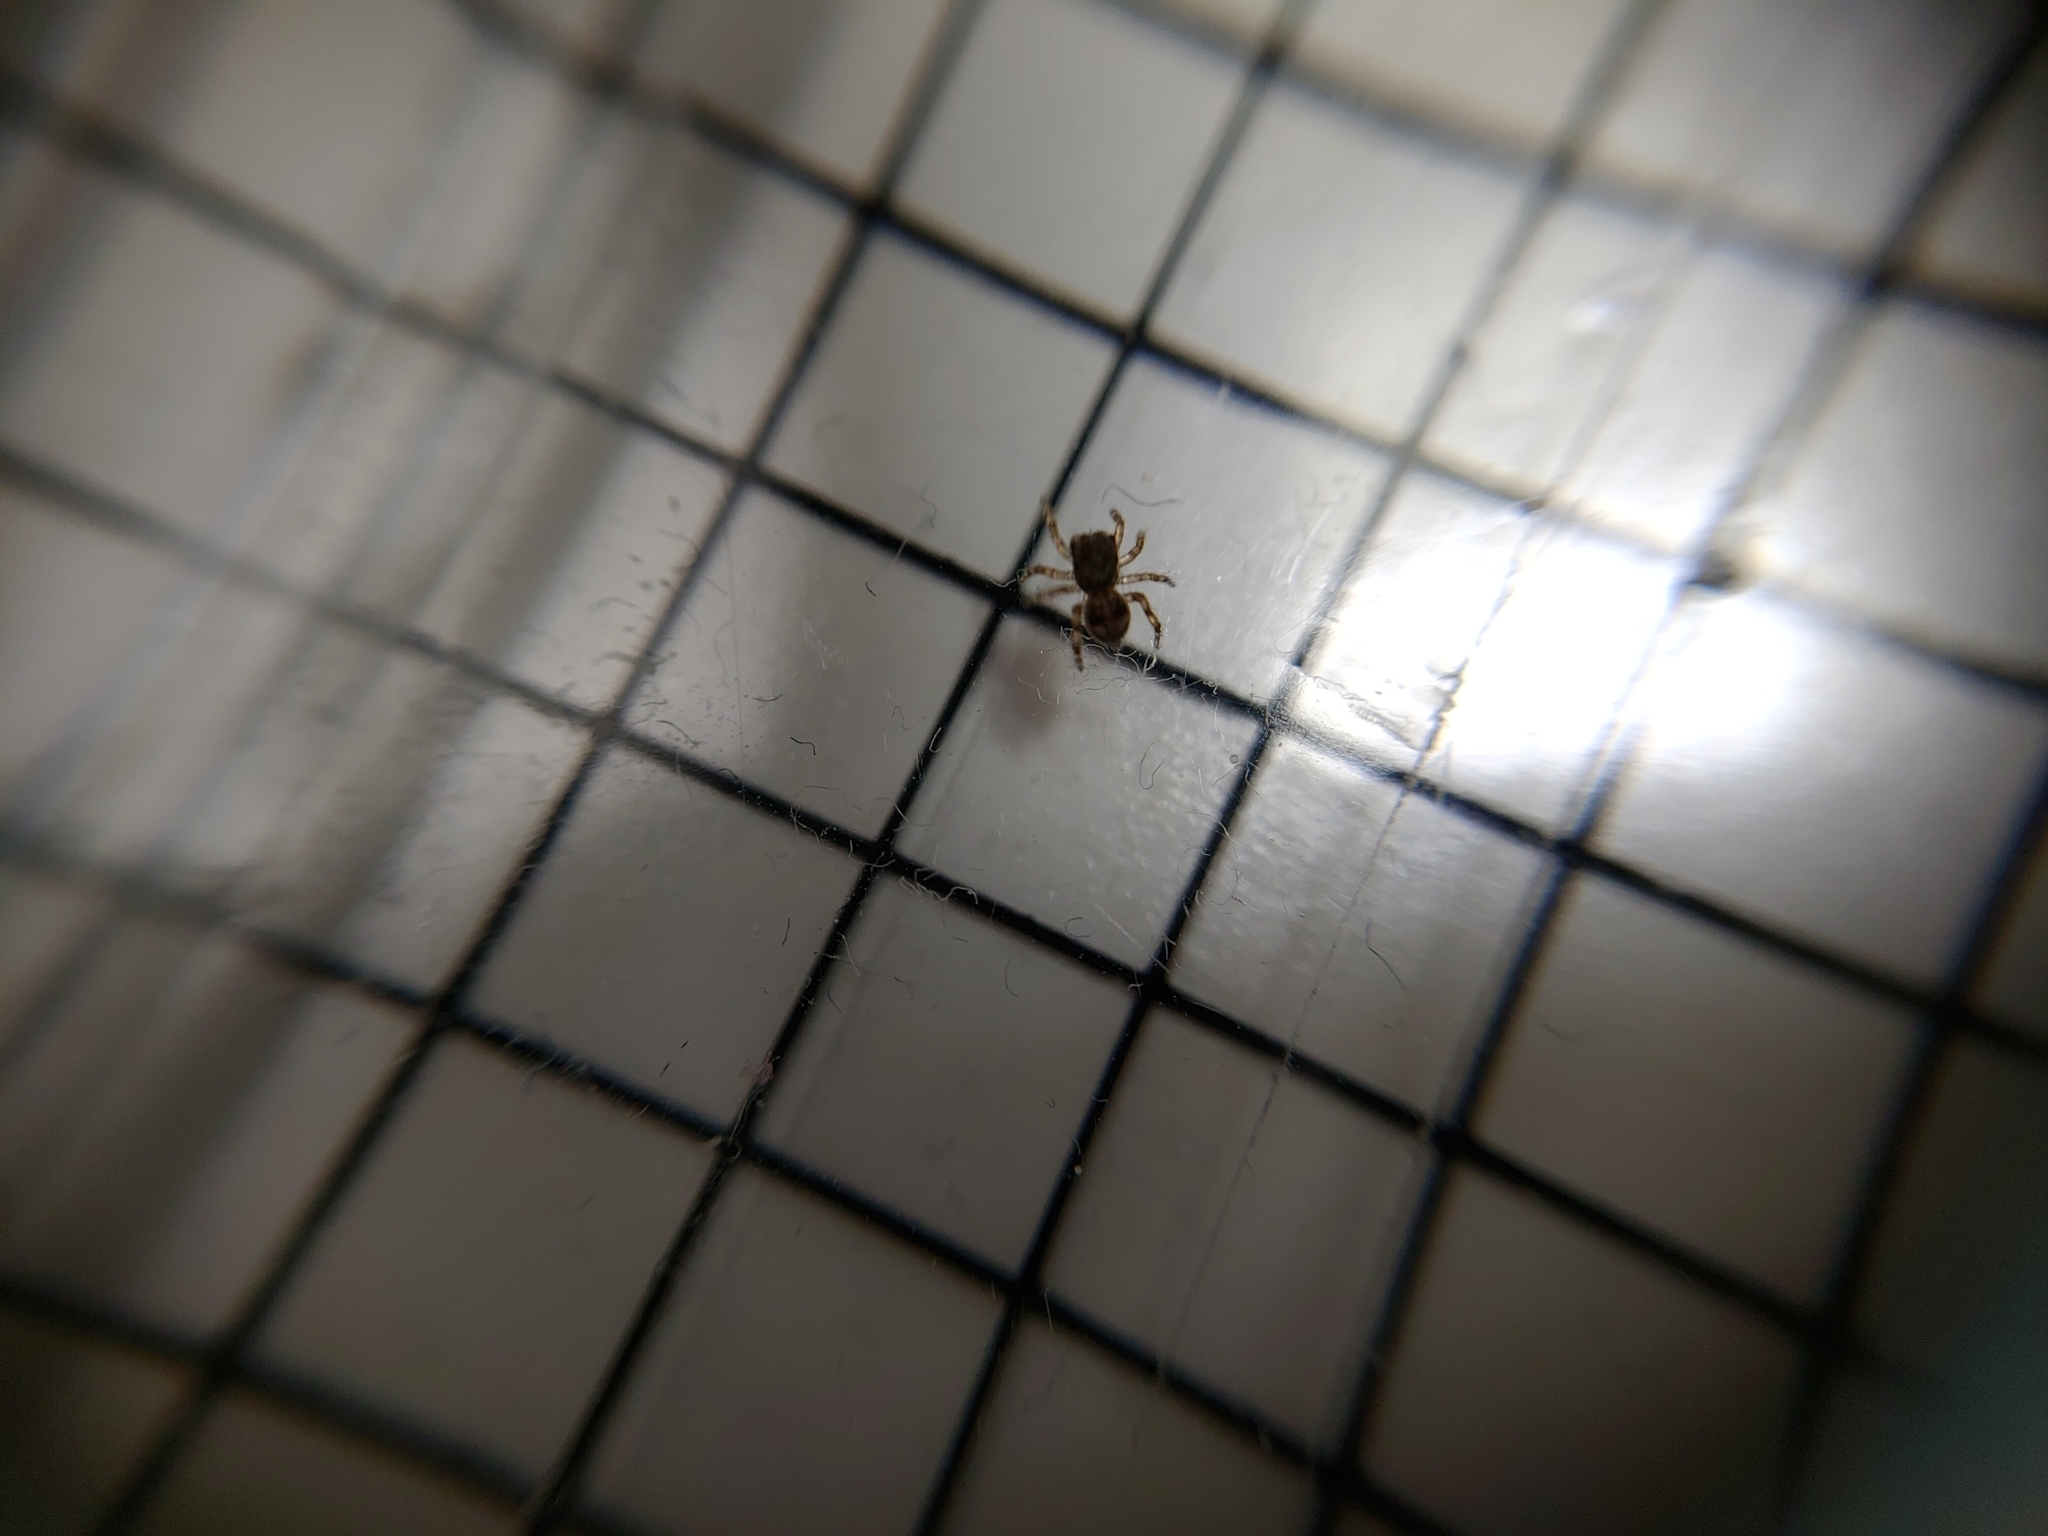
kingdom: Animalia
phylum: Arthropoda
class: Arachnida
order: Araneae
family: Salticidae
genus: Attulus
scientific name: Attulus fasciger
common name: Asiatic wall jumping spider
